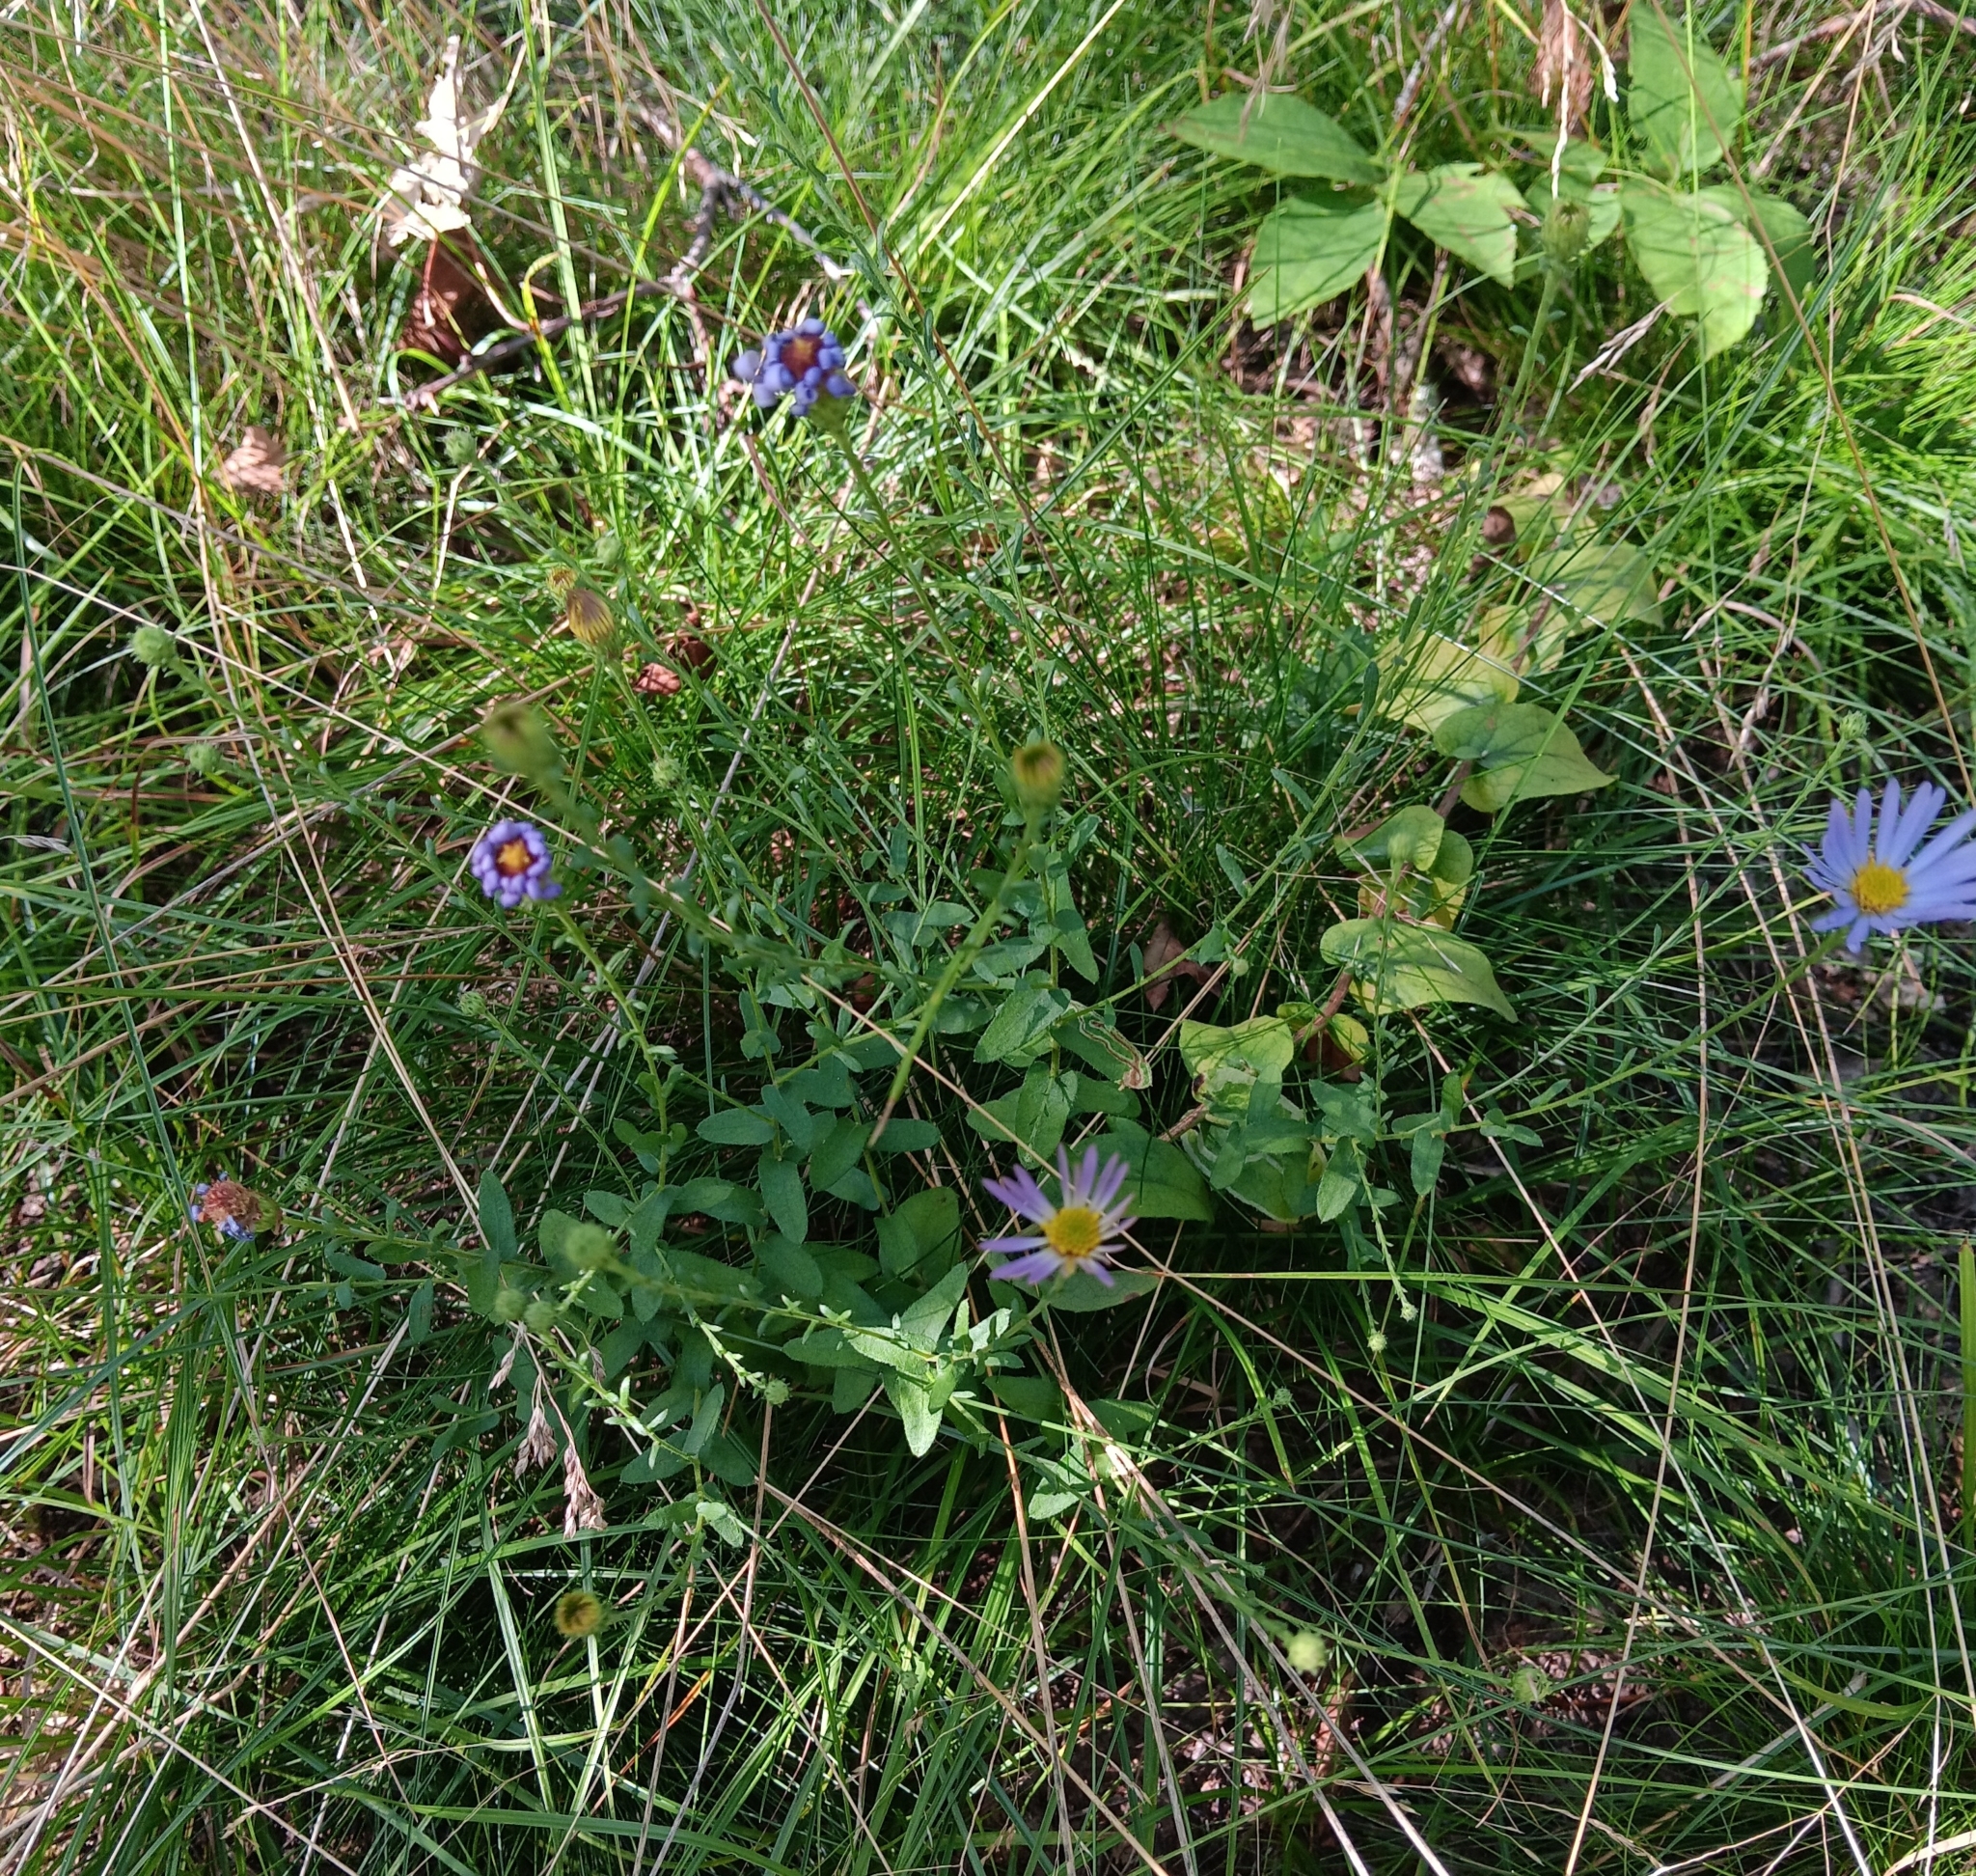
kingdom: Plantae
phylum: Tracheophyta
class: Magnoliopsida
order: Asterales
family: Asteraceae
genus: Symphyotrichum
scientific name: Symphyotrichum patens
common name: Late purple aster
